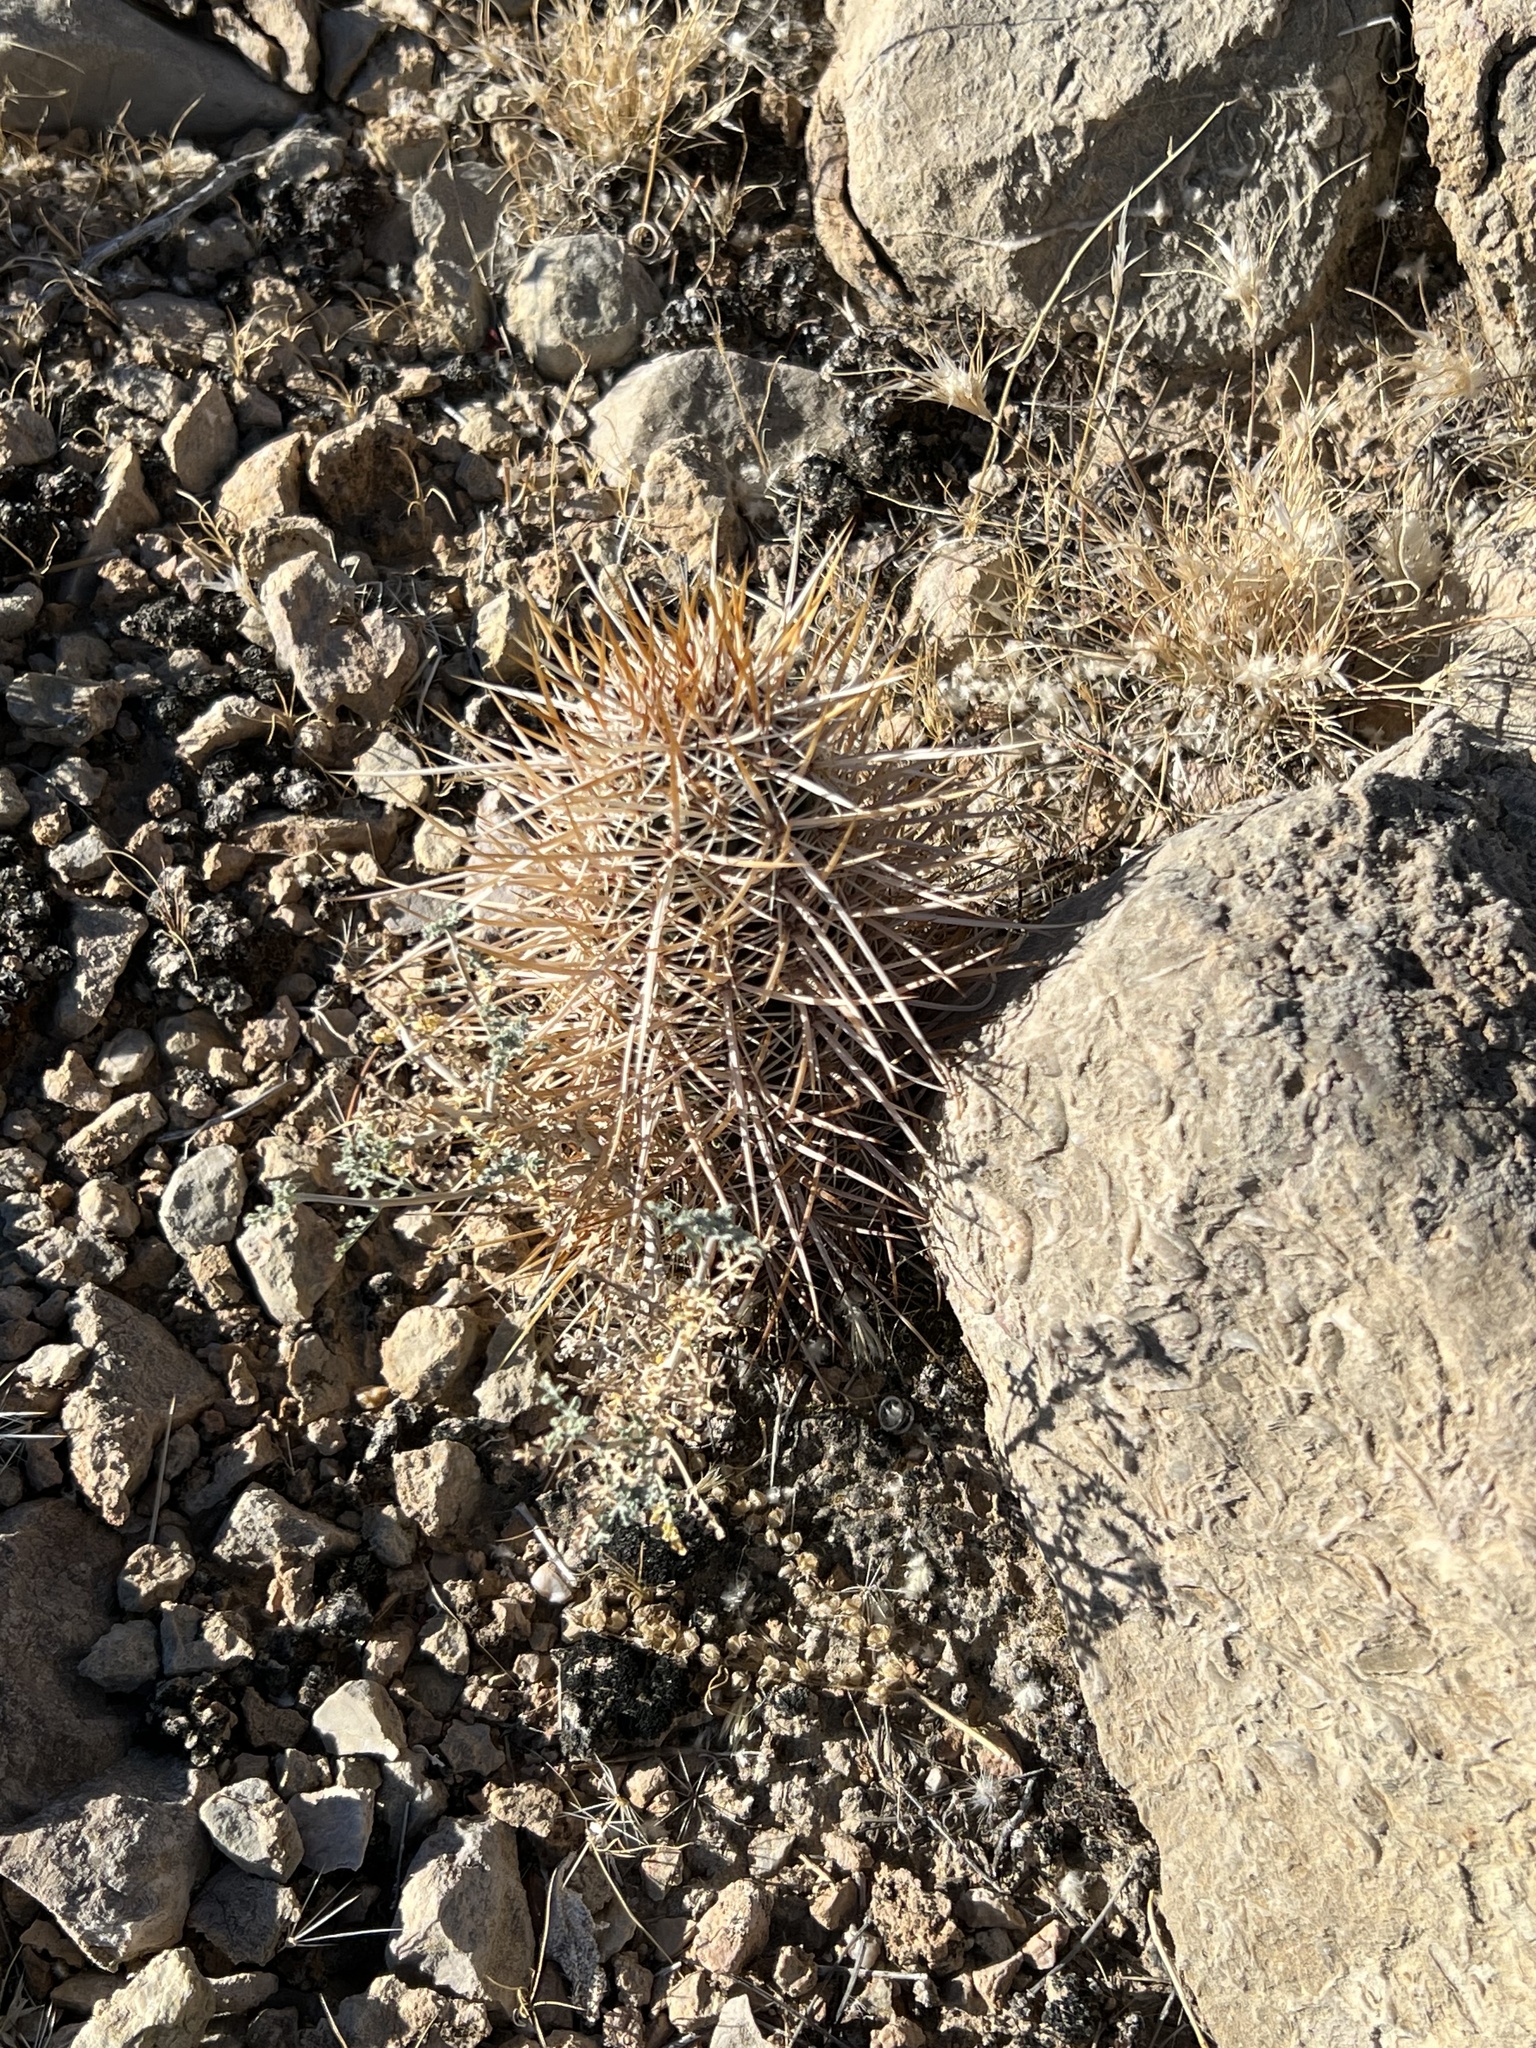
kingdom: Plantae
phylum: Tracheophyta
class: Magnoliopsida
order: Caryophyllales
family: Cactaceae
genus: Echinocereus
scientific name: Echinocereus engelmannii
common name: Engelmann's hedgehog cactus
